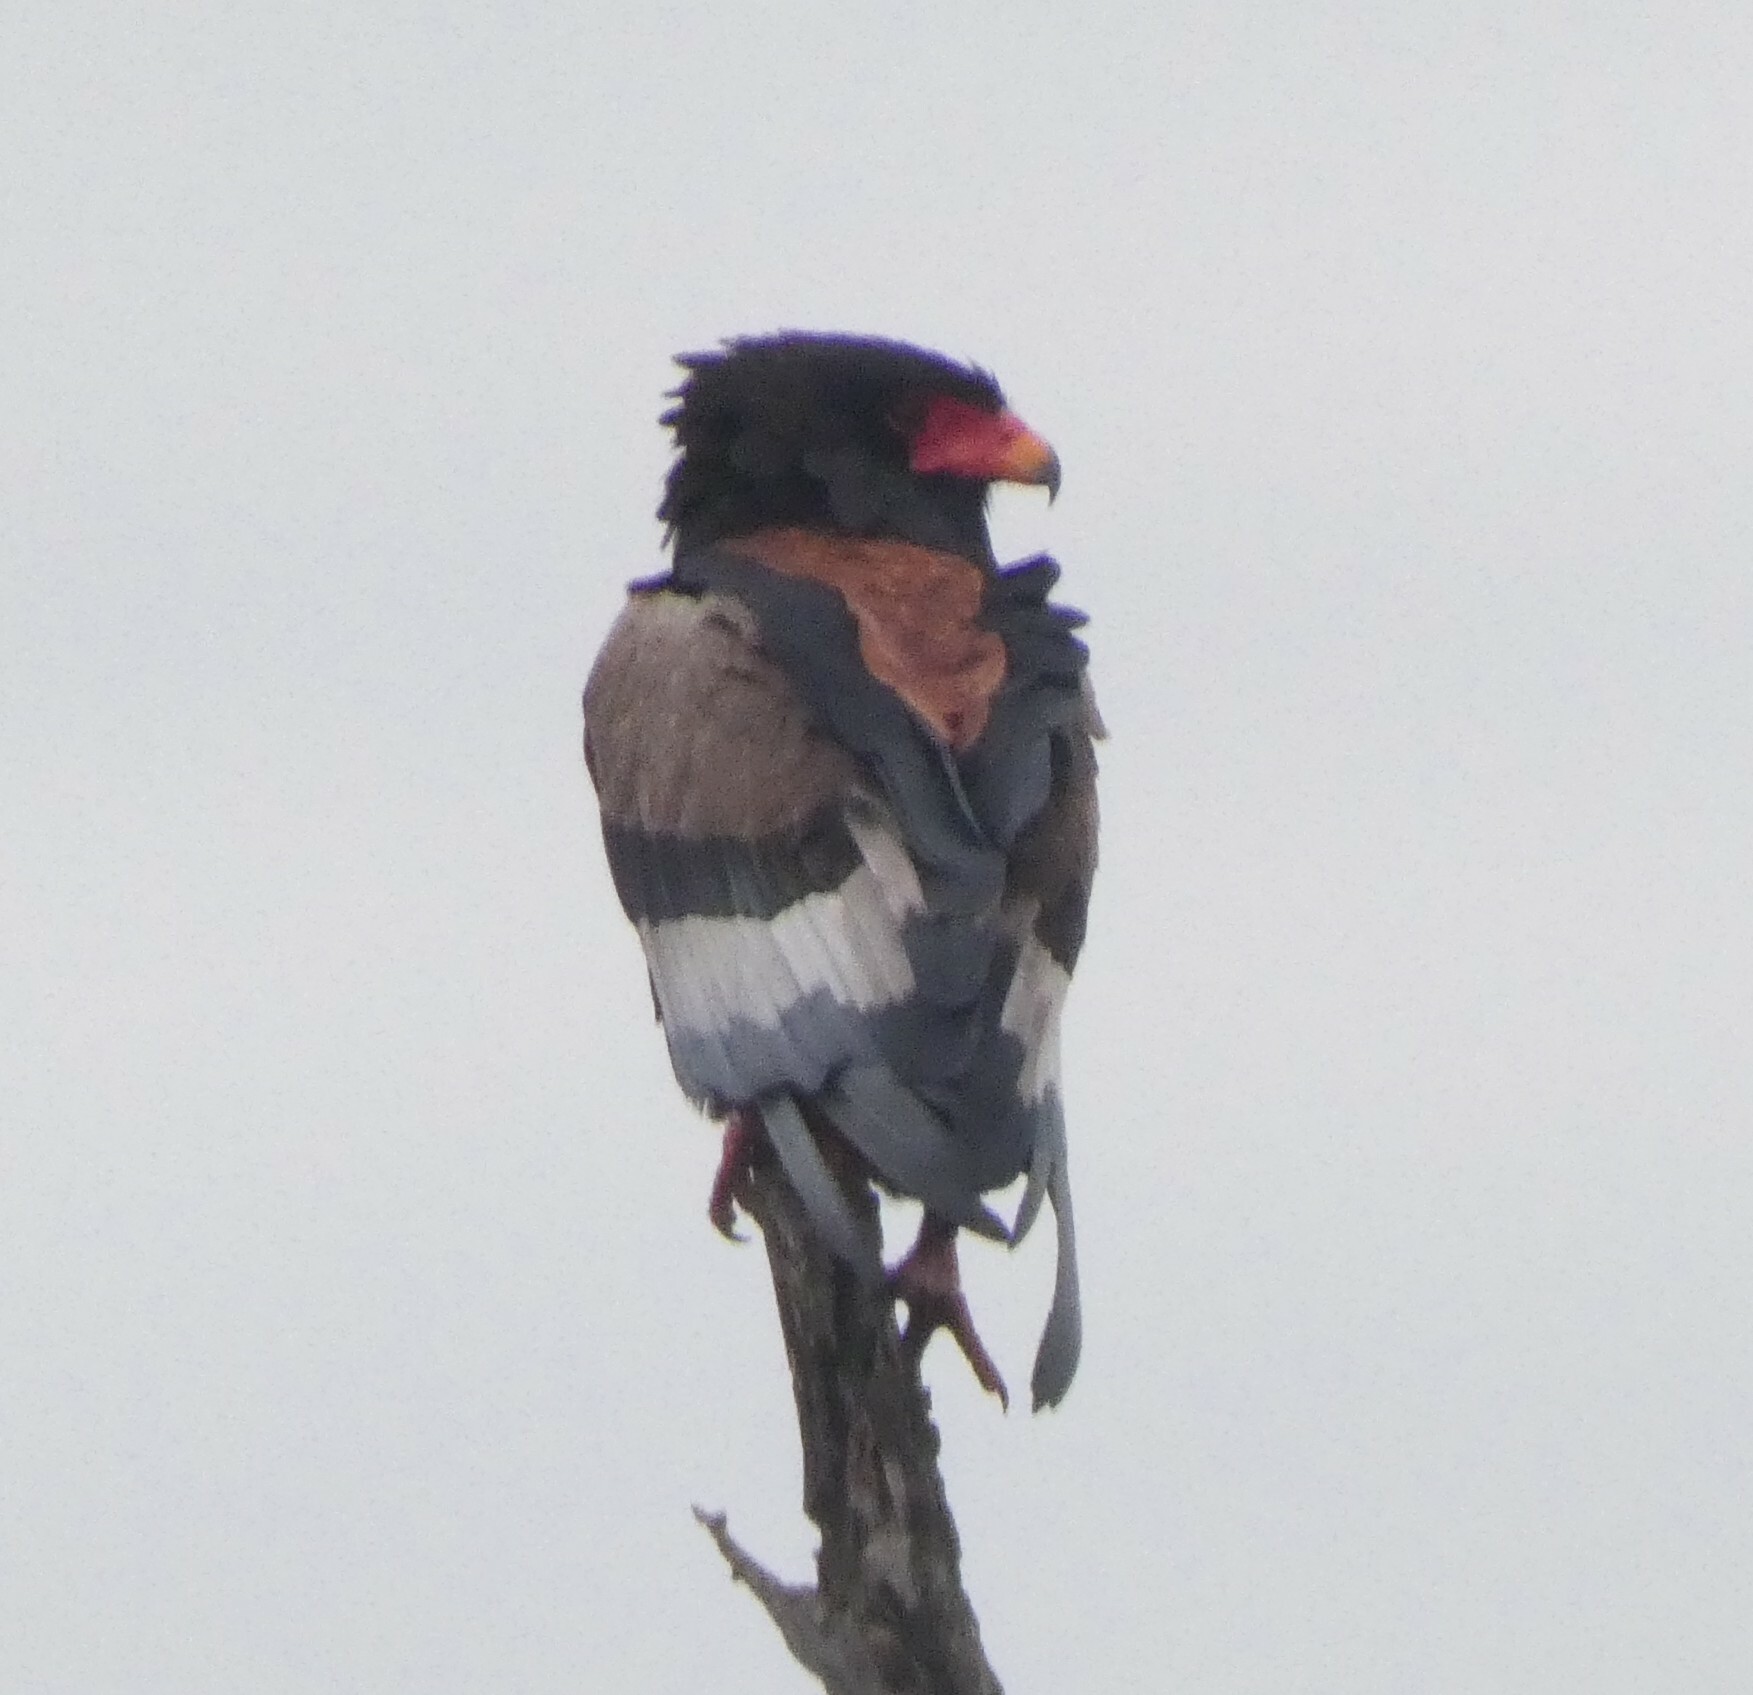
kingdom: Animalia
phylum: Chordata
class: Aves
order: Accipitriformes
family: Accipitridae
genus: Terathopius
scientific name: Terathopius ecaudatus
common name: Bateleur
